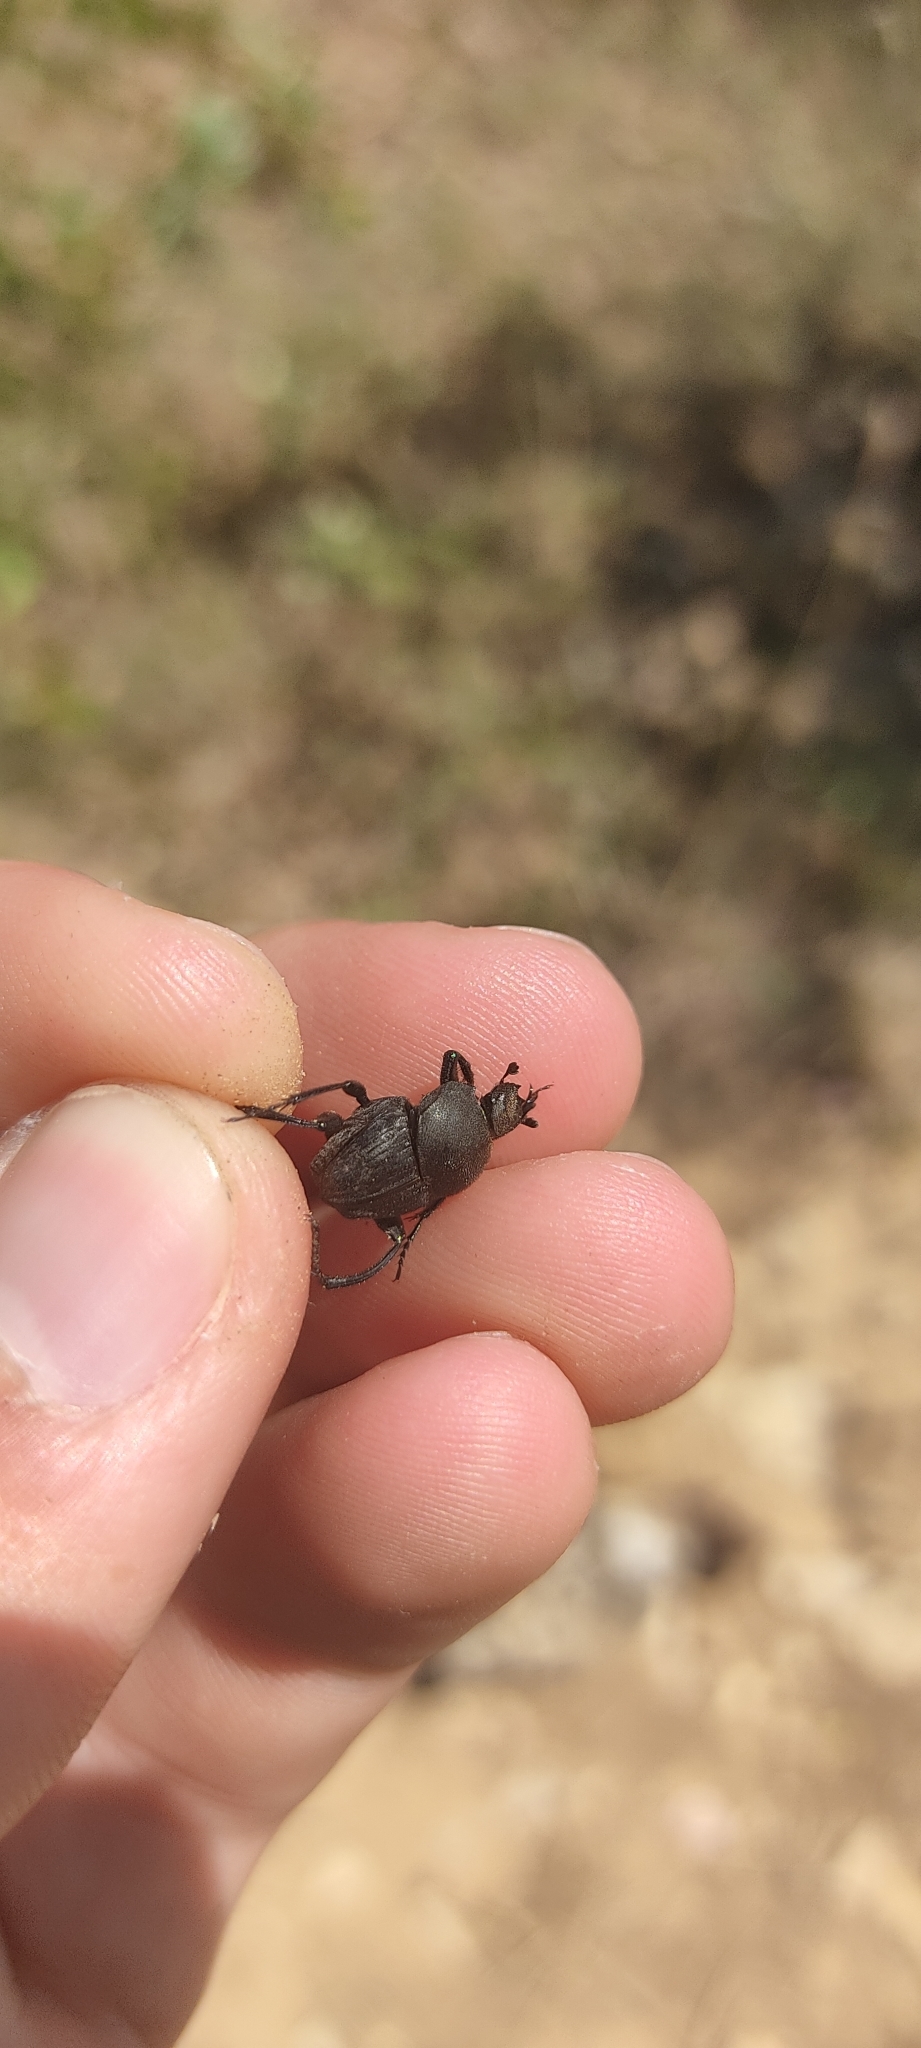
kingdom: Animalia
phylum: Arthropoda
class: Insecta
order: Coleoptera
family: Scarabaeidae
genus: Sisyphus
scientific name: Sisyphus schaefferi
